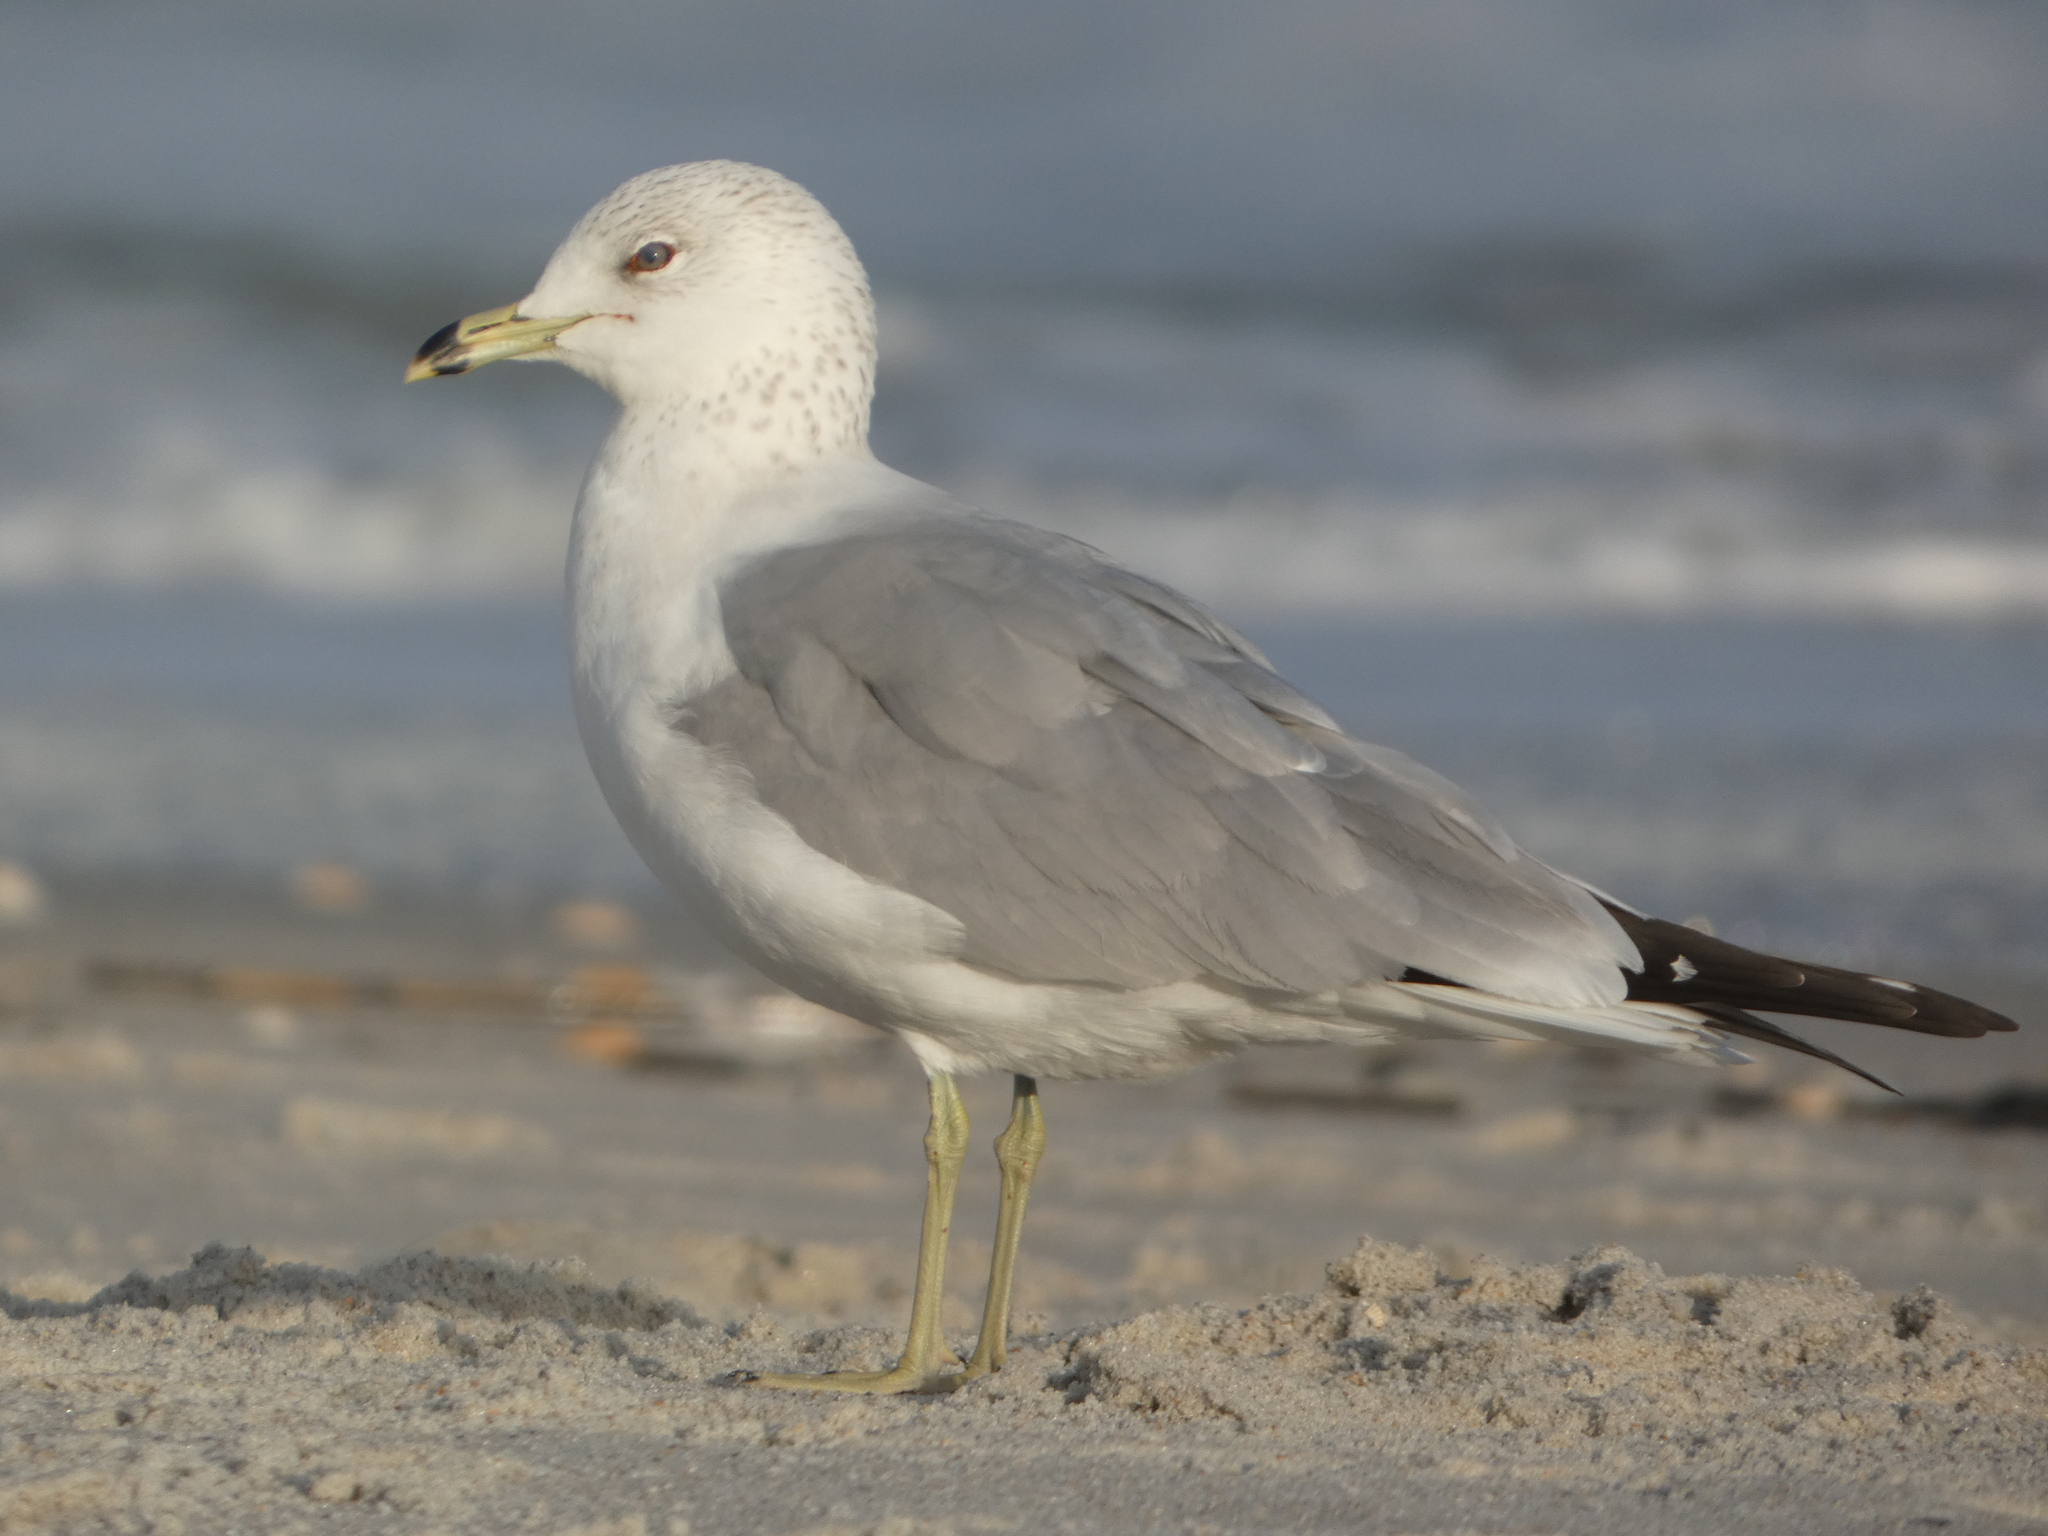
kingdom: Animalia
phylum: Chordata
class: Aves
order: Charadriiformes
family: Laridae
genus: Larus
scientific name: Larus delawarensis
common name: Ring-billed gull
